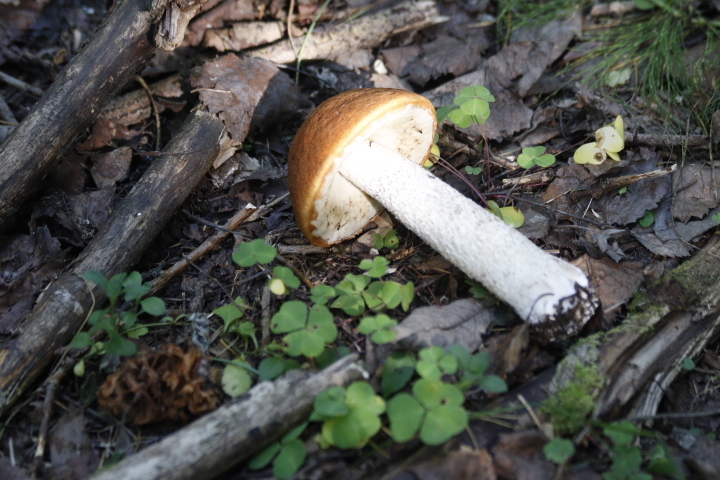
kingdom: Fungi
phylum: Basidiomycota
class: Agaricomycetes
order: Boletales
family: Boletaceae
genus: Leccinum
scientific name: Leccinum albostipitatum
